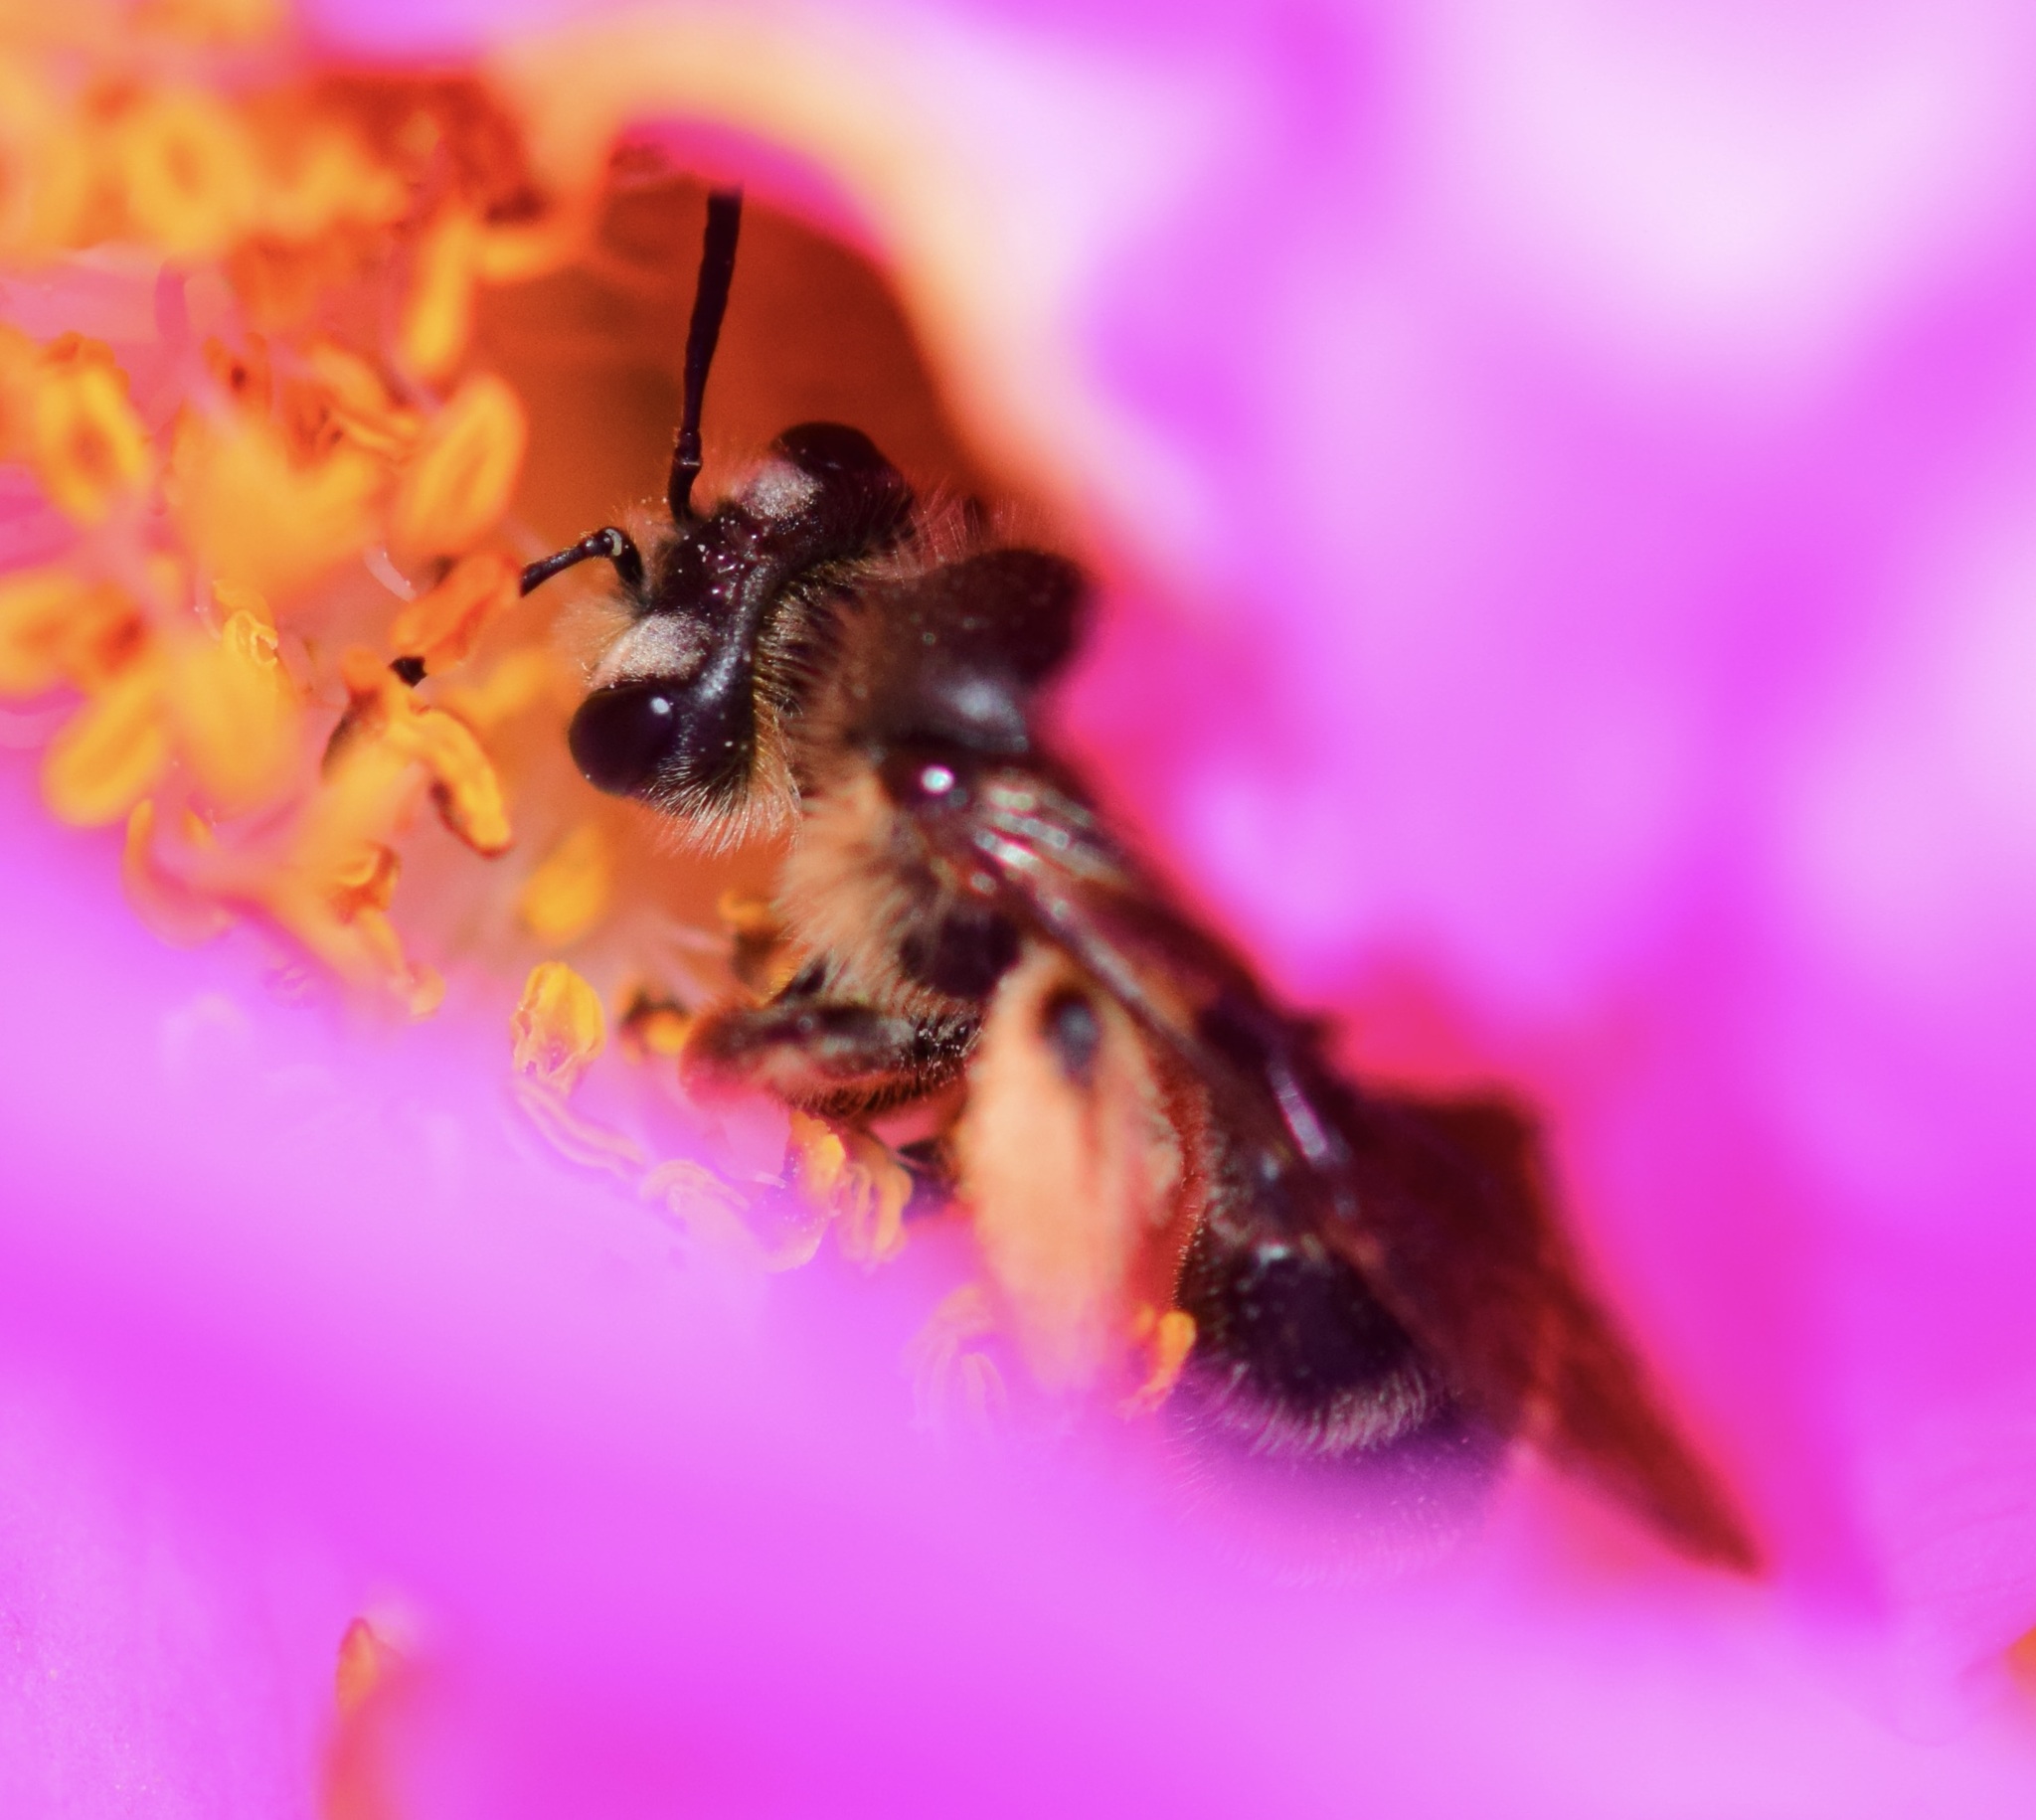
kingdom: Animalia
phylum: Arthropoda
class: Insecta
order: Hymenoptera
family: Andrenidae
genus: Andrena
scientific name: Andrena thaspii
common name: Parsnip miner bee
